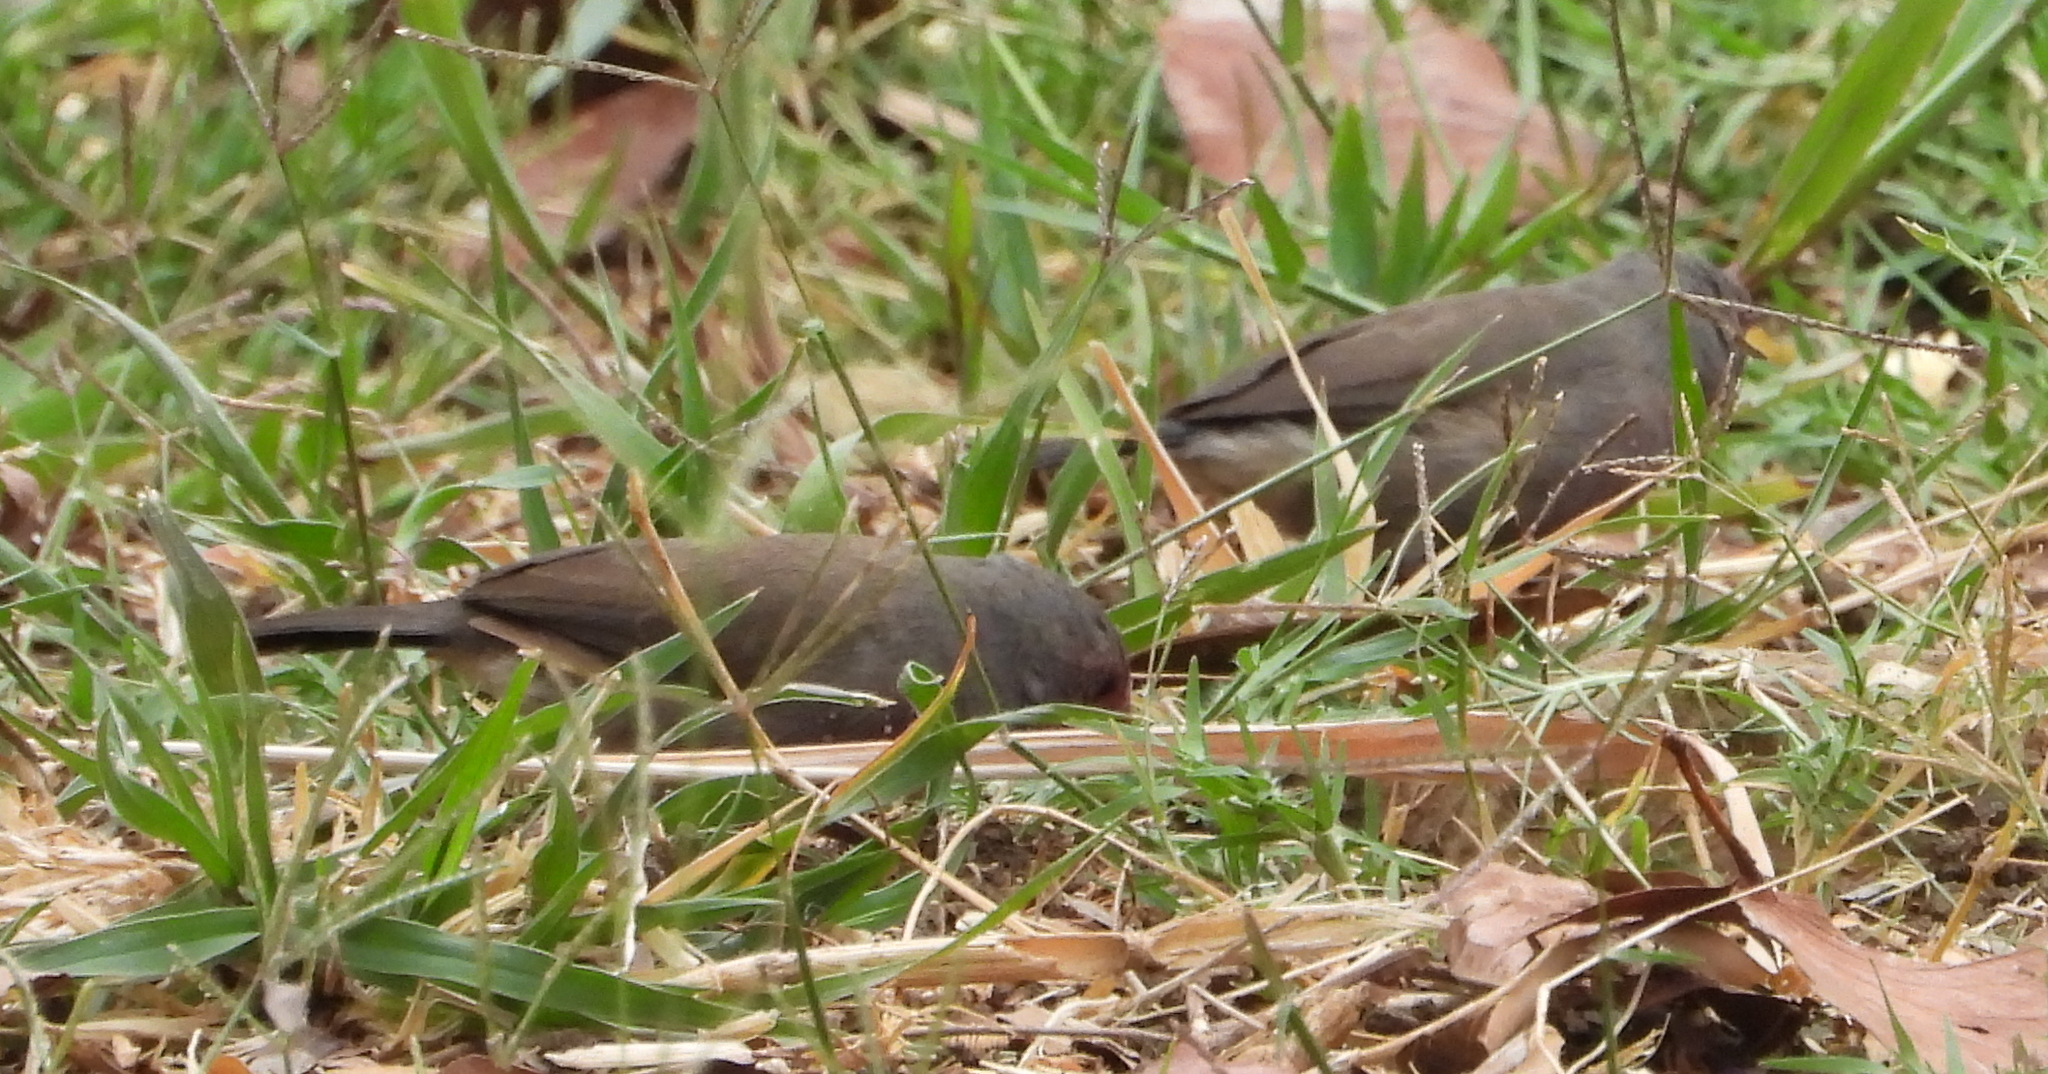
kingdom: Animalia
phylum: Chordata
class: Aves
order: Passeriformes
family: Estrildidae
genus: Lagonosticta
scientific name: Lagonosticta nitidula
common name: Brown firefinch
